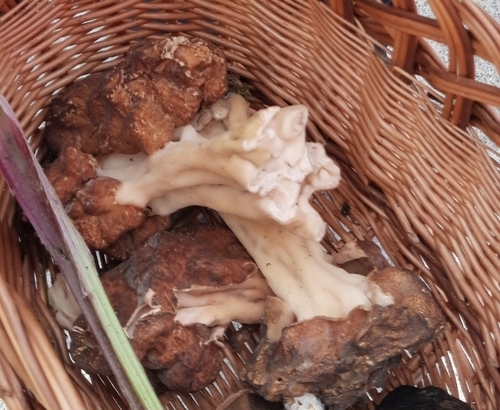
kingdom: Fungi
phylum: Ascomycota
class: Pezizomycetes
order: Pezizales
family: Discinaceae
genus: Gyromitra
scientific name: Gyromitra
